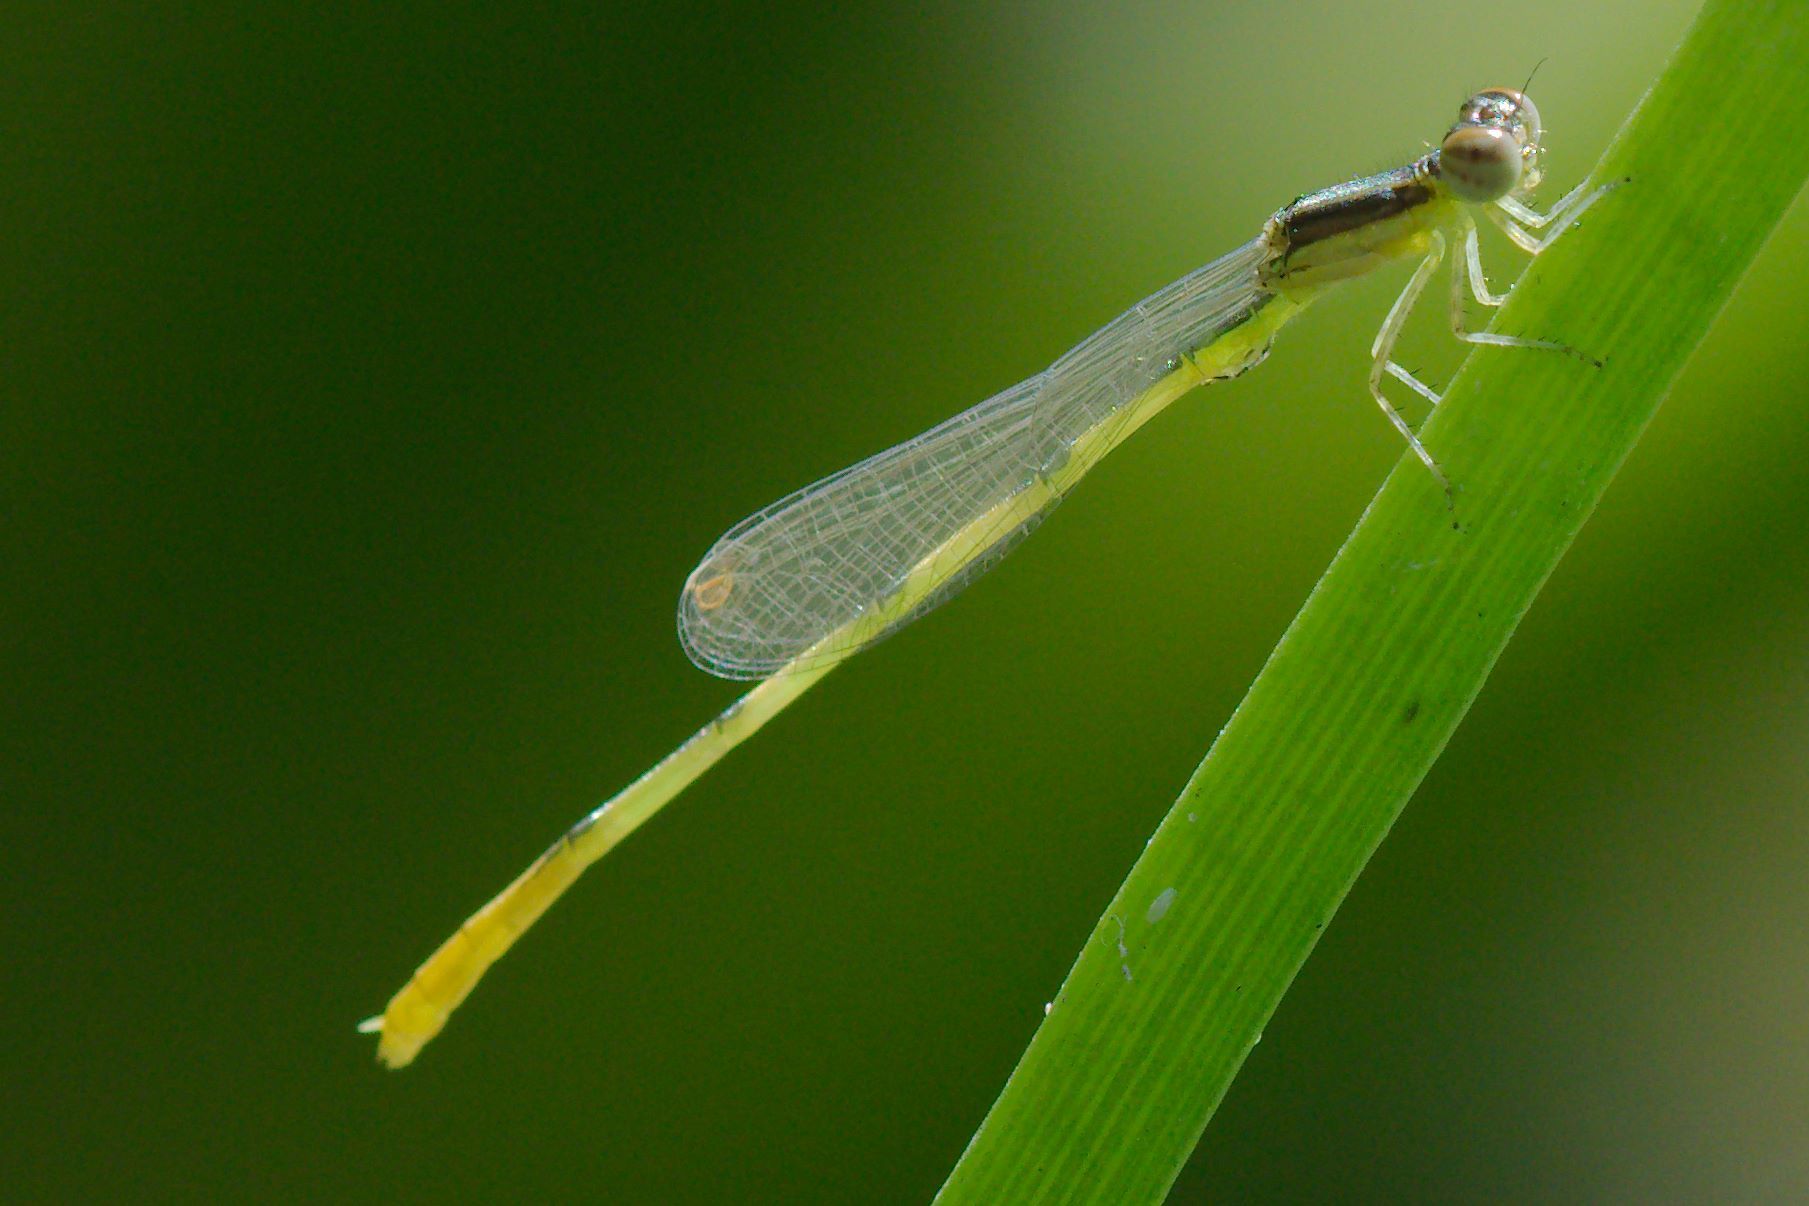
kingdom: Animalia
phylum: Arthropoda
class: Insecta
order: Odonata
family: Coenagrionidae
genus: Ischnura
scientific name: Ischnura hastata
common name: Citrine forktail
